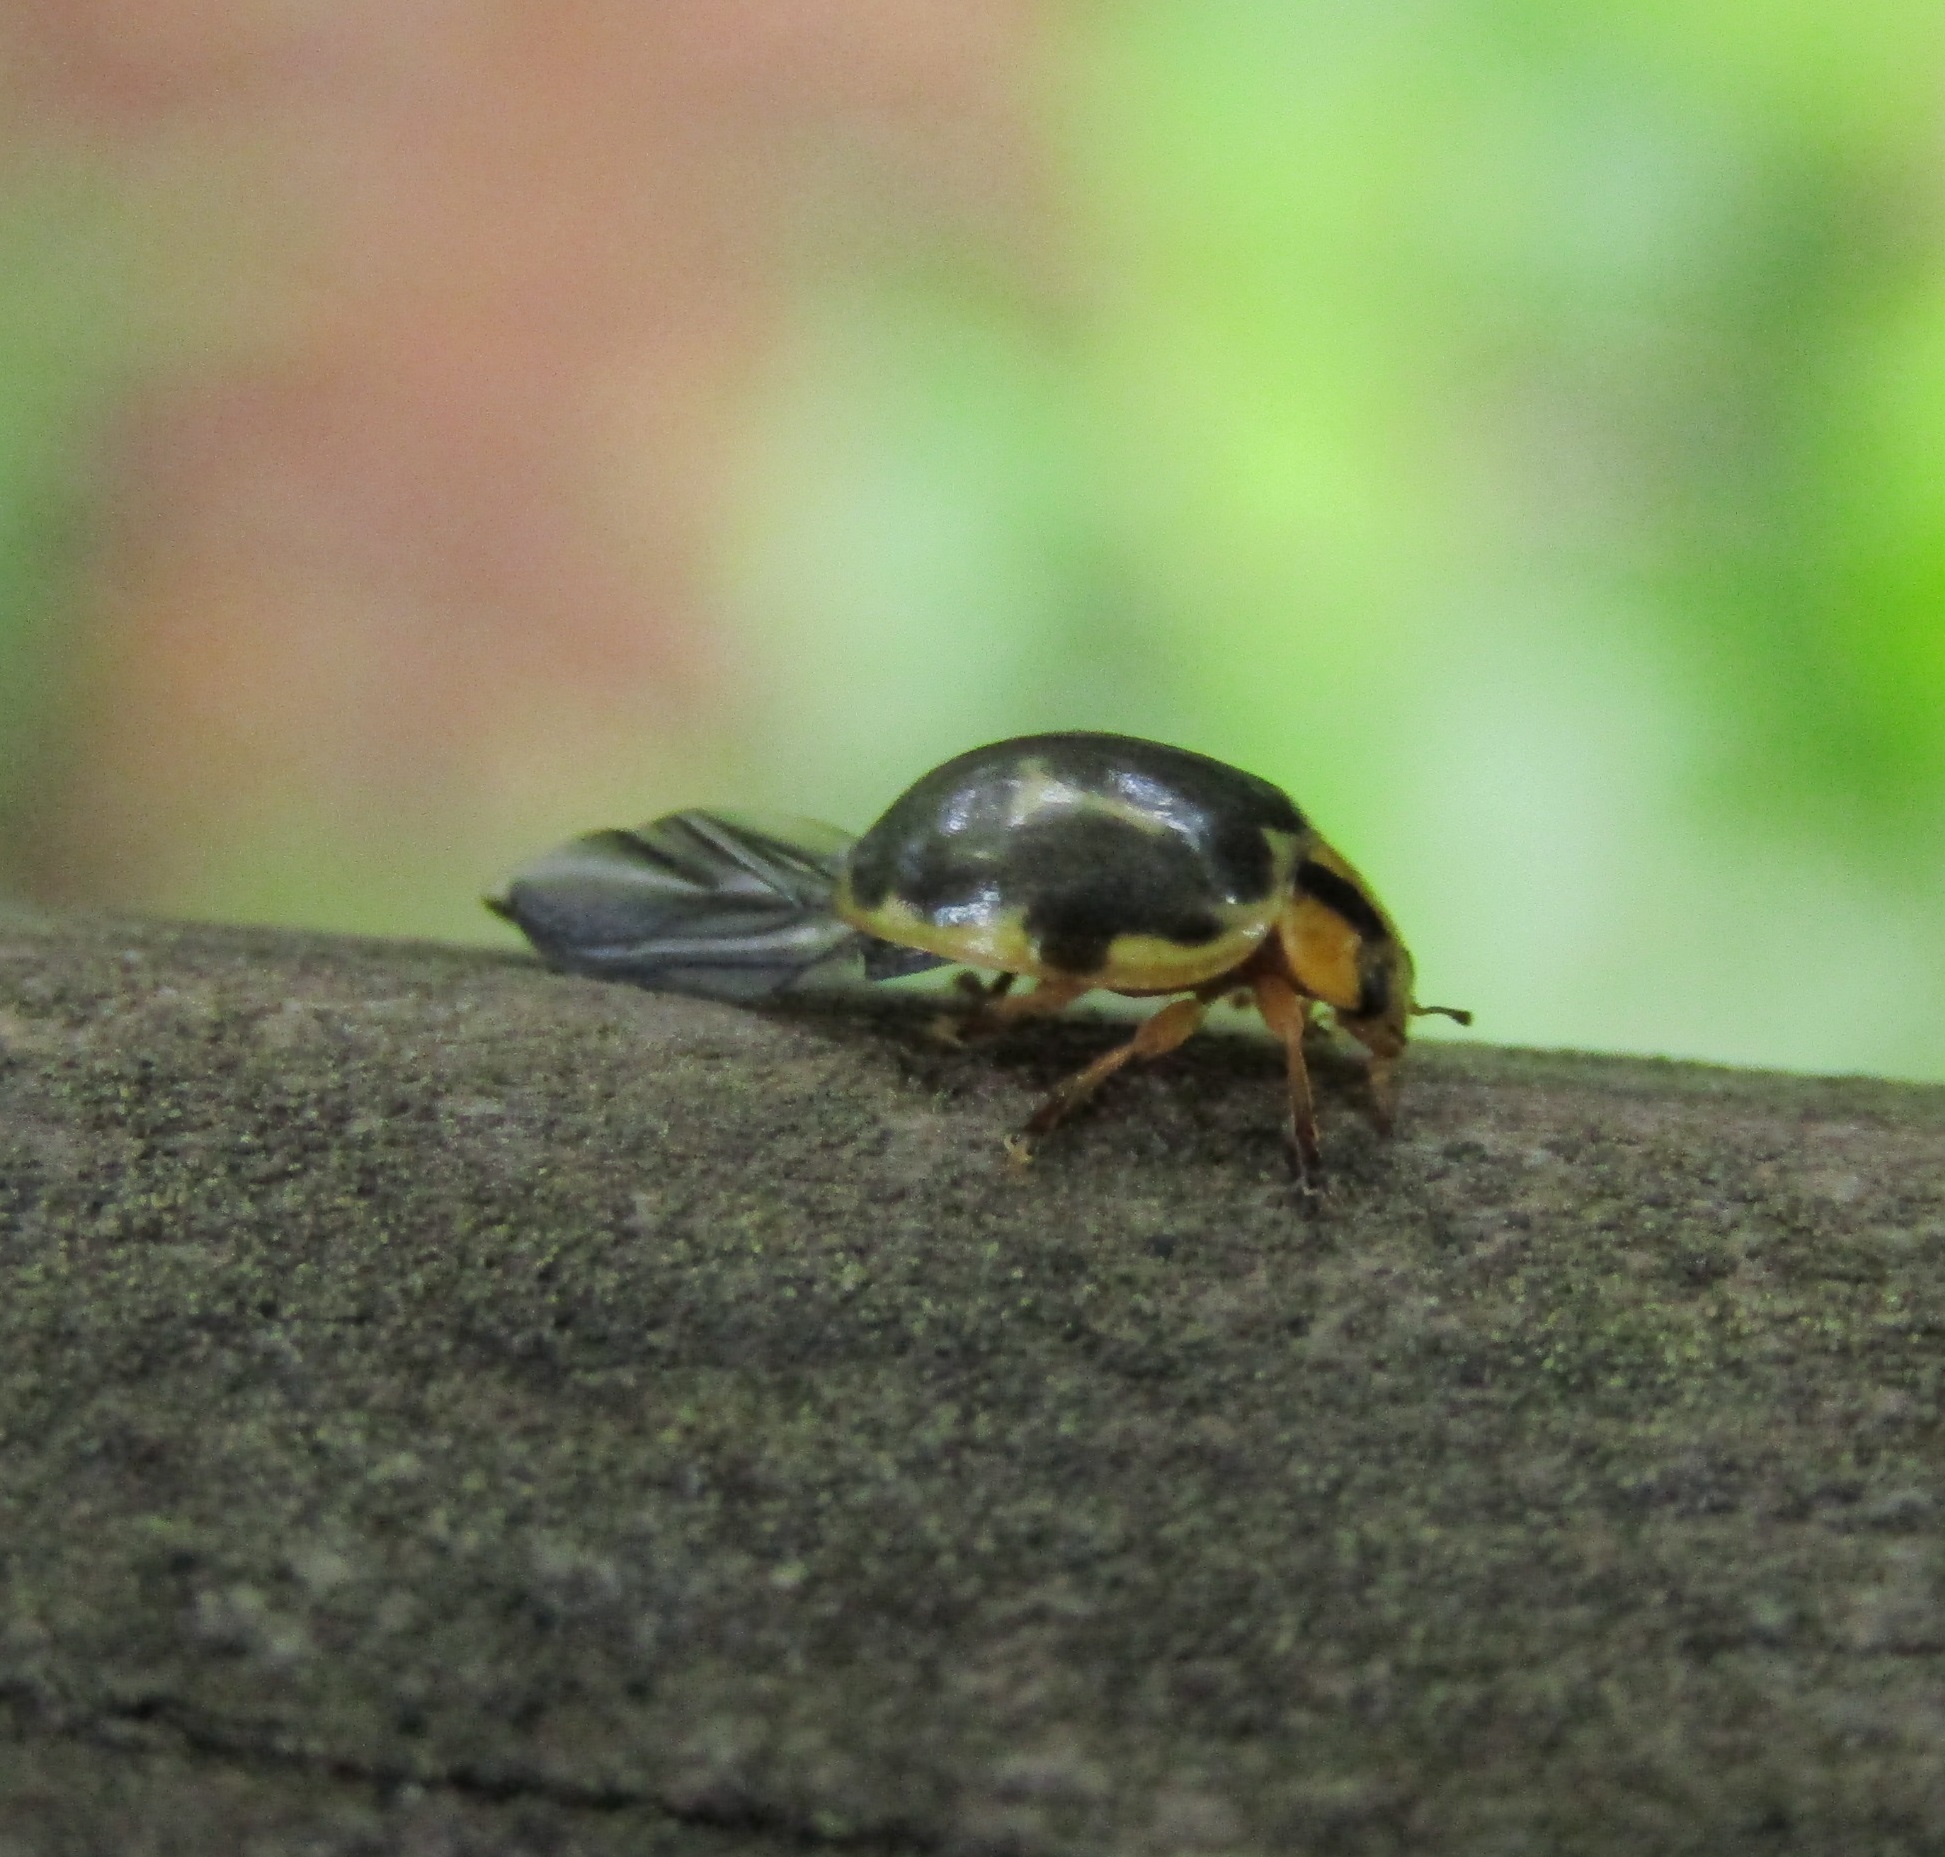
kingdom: Animalia
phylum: Arthropoda
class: Insecta
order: Coleoptera
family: Coccinellidae
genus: Harmonia
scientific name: Harmonia
